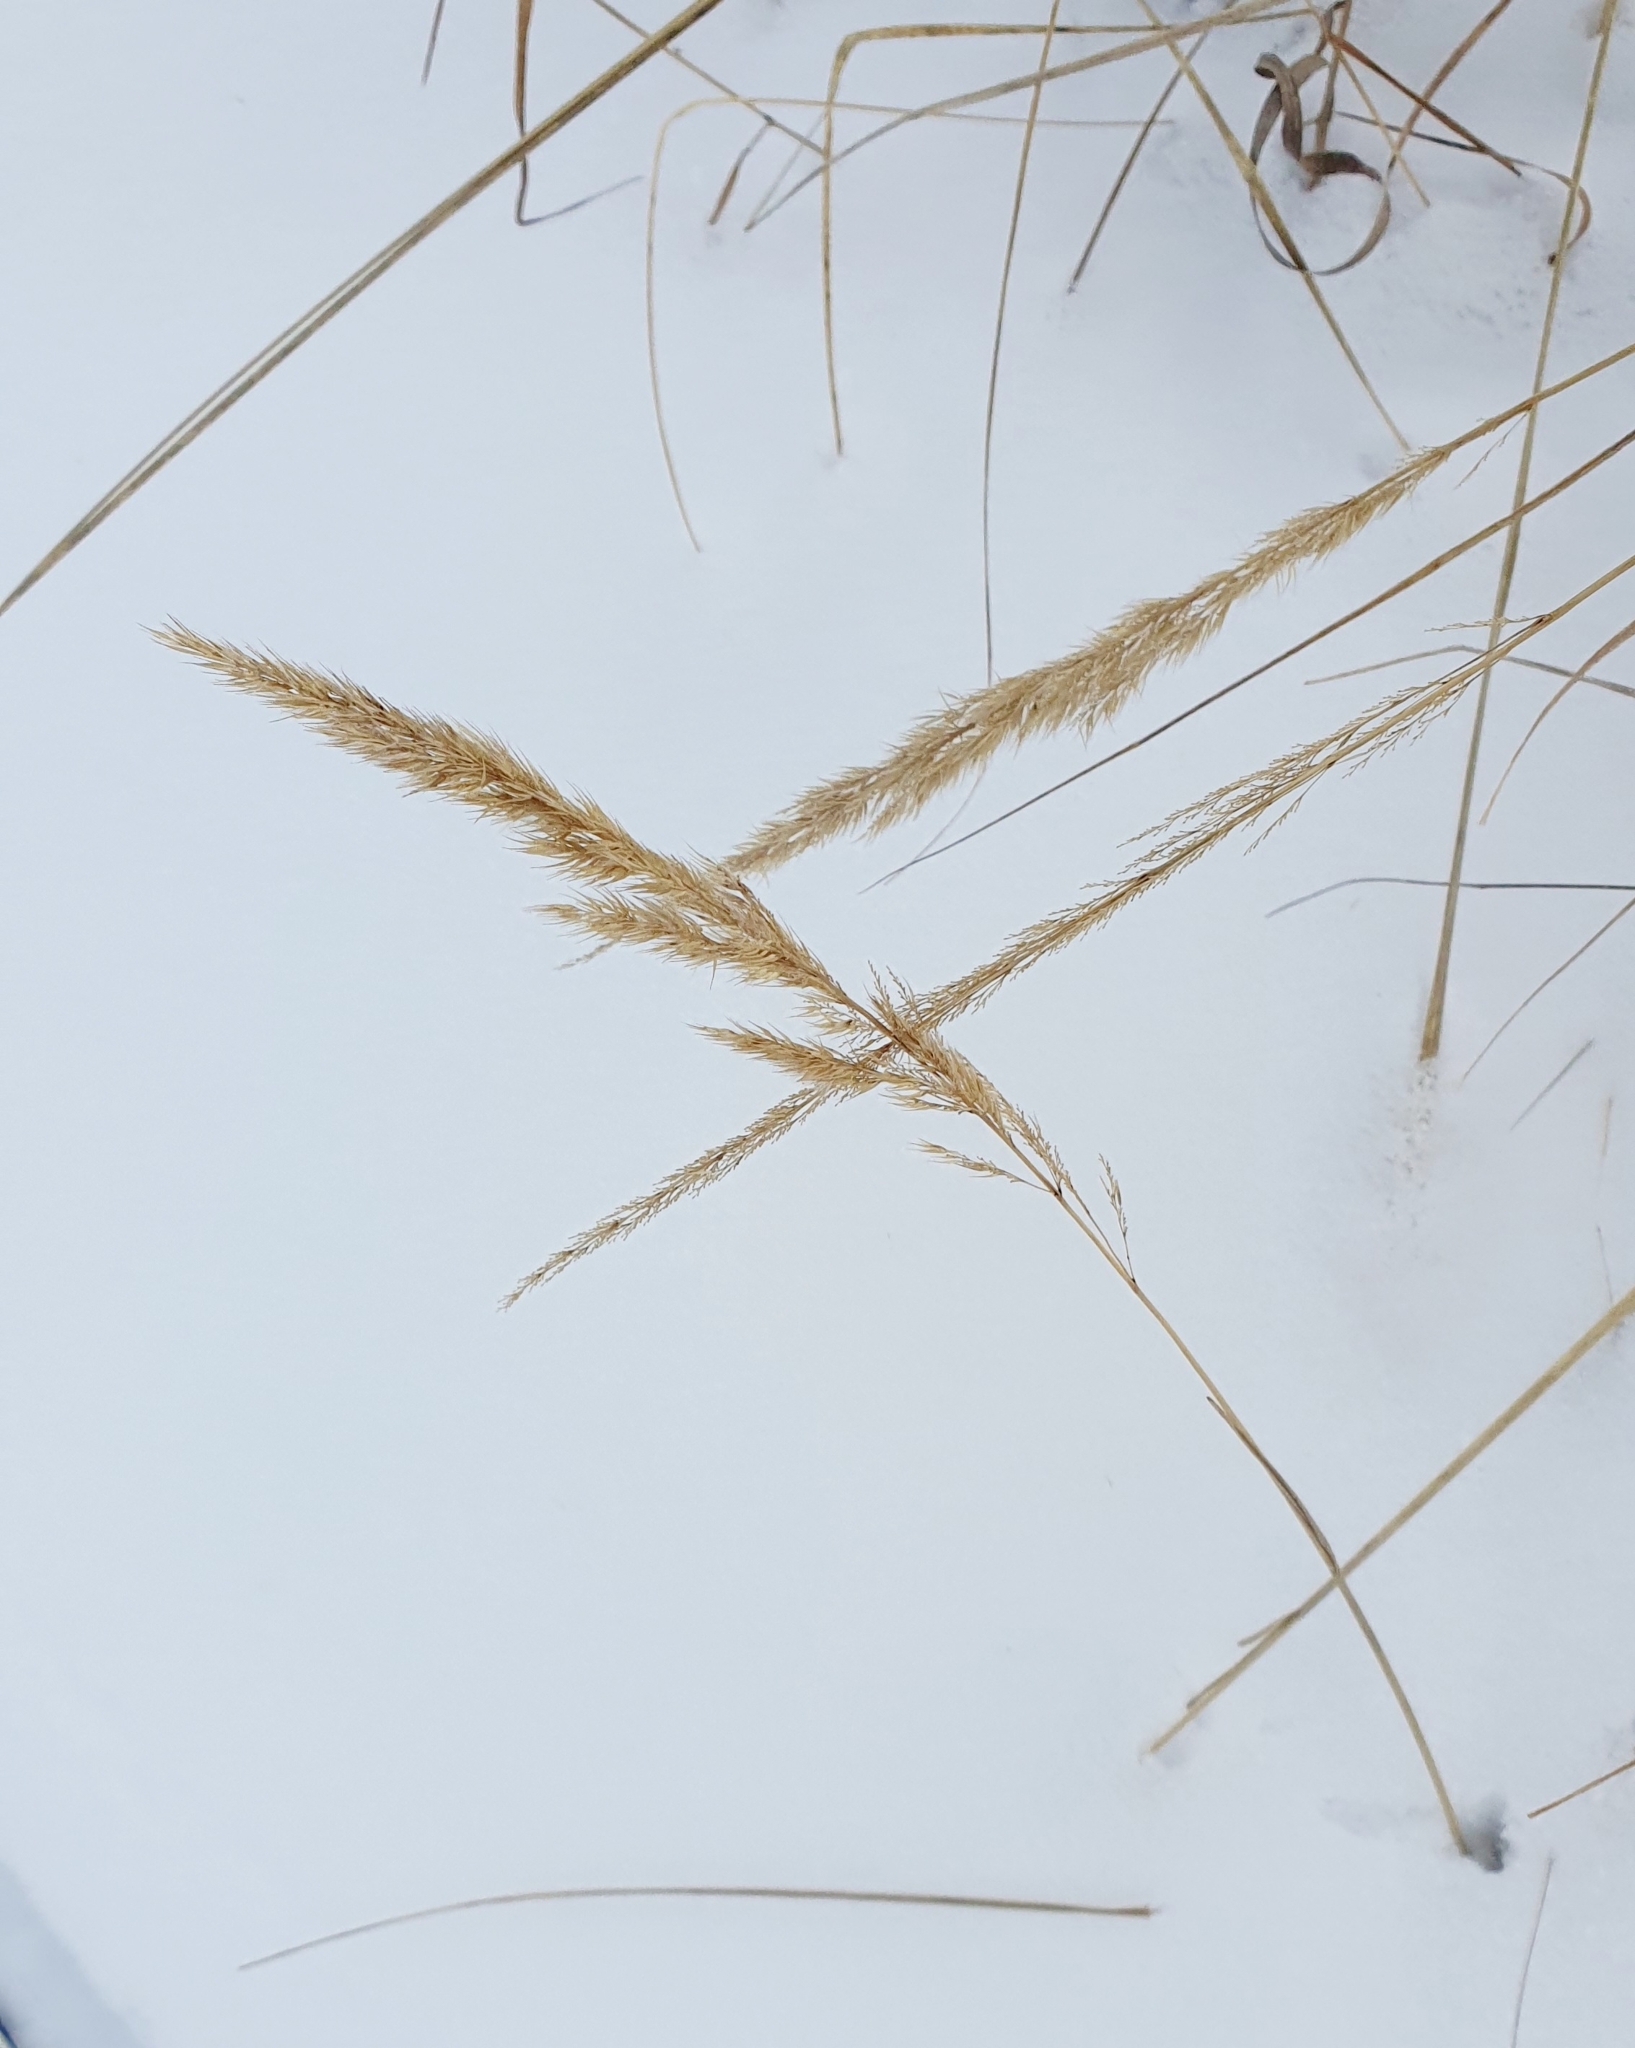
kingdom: Plantae
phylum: Tracheophyta
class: Liliopsida
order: Poales
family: Poaceae
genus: Calamagrostis
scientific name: Calamagrostis epigejos
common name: Wood small-reed
